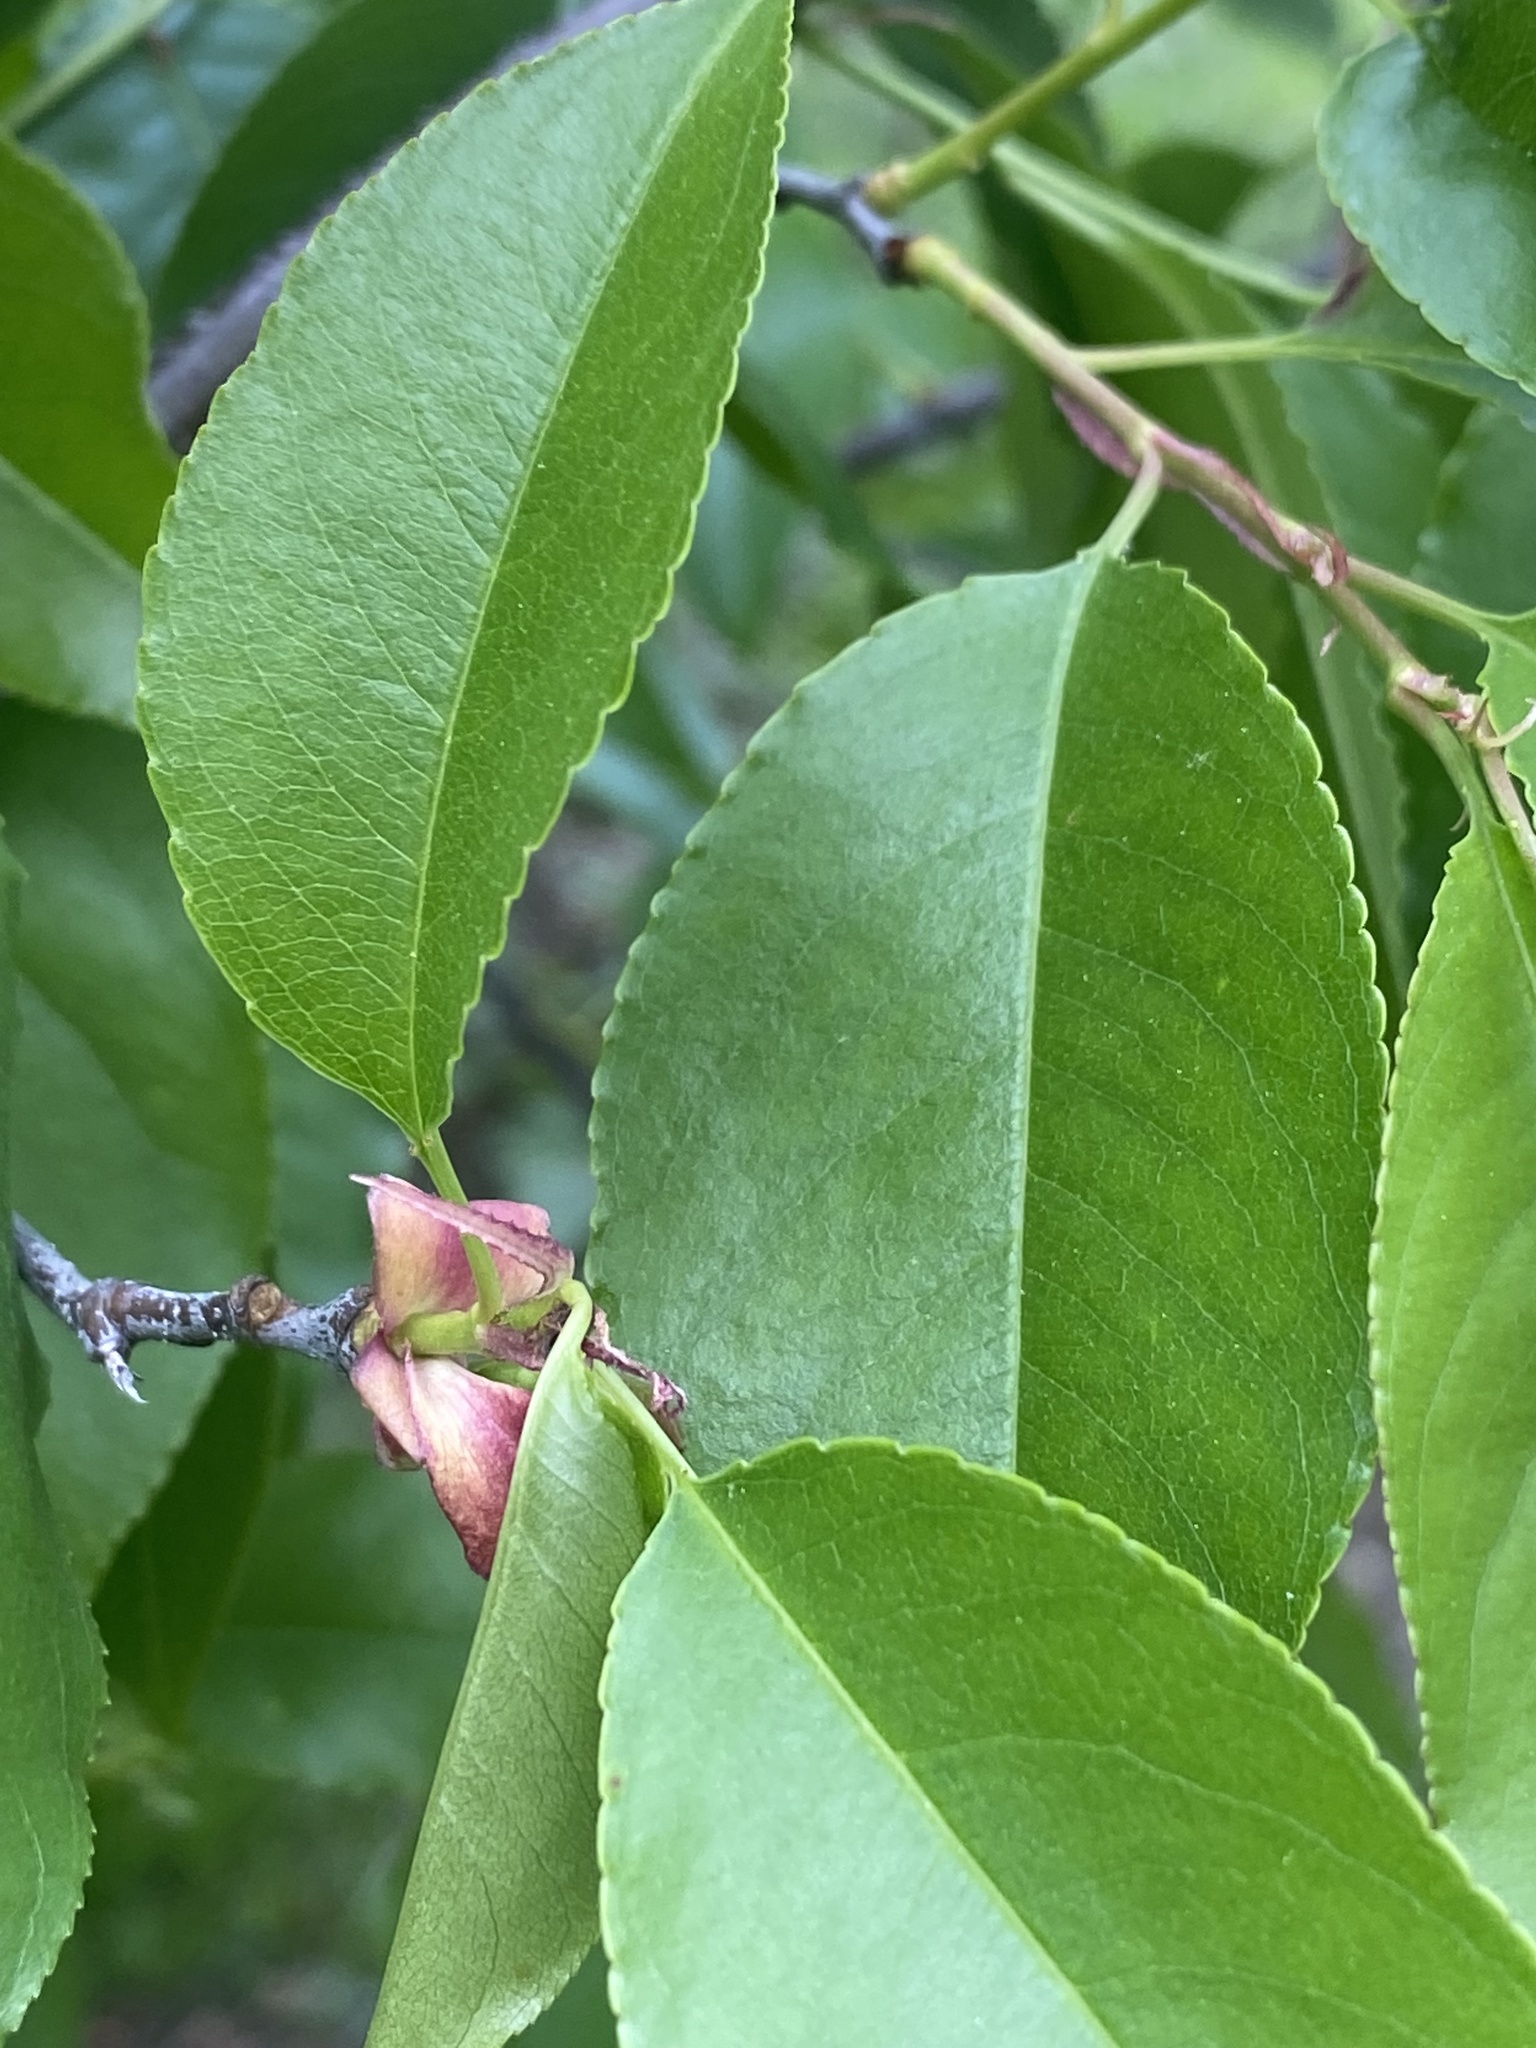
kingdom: Plantae
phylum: Tracheophyta
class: Magnoliopsida
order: Rosales
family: Rosaceae
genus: Prunus
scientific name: Prunus serotina
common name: Black cherry
